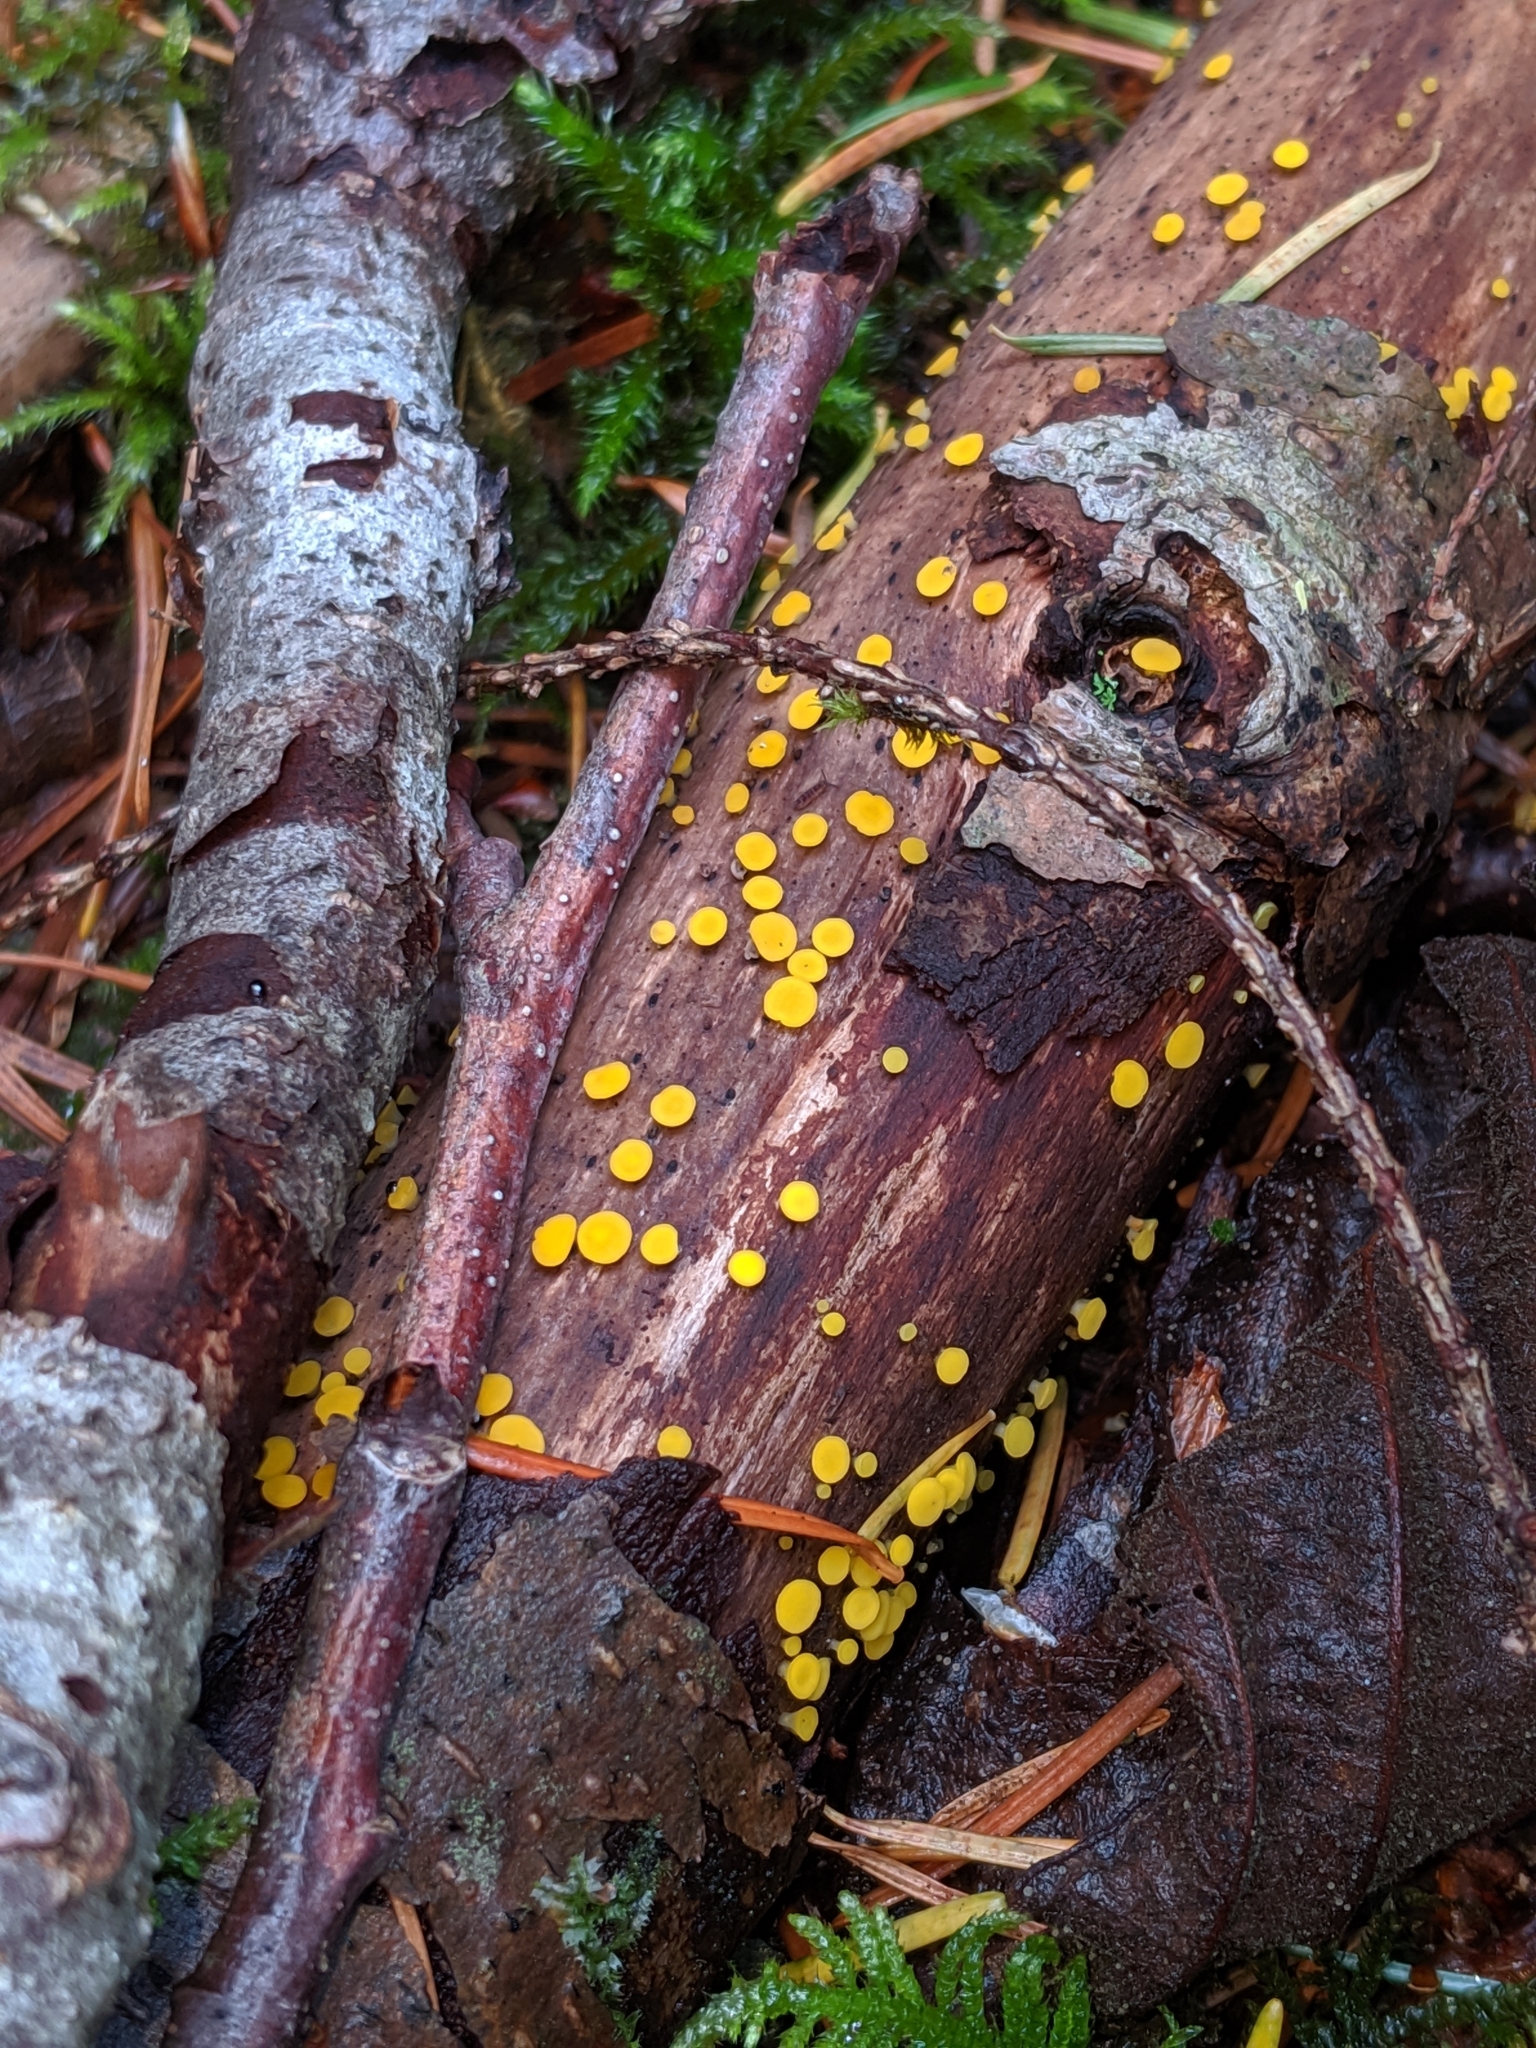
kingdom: Fungi
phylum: Ascomycota
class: Leotiomycetes
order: Helotiales
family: Pezizellaceae
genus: Calycina
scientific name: Calycina citrina
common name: Yellow fairy cups
